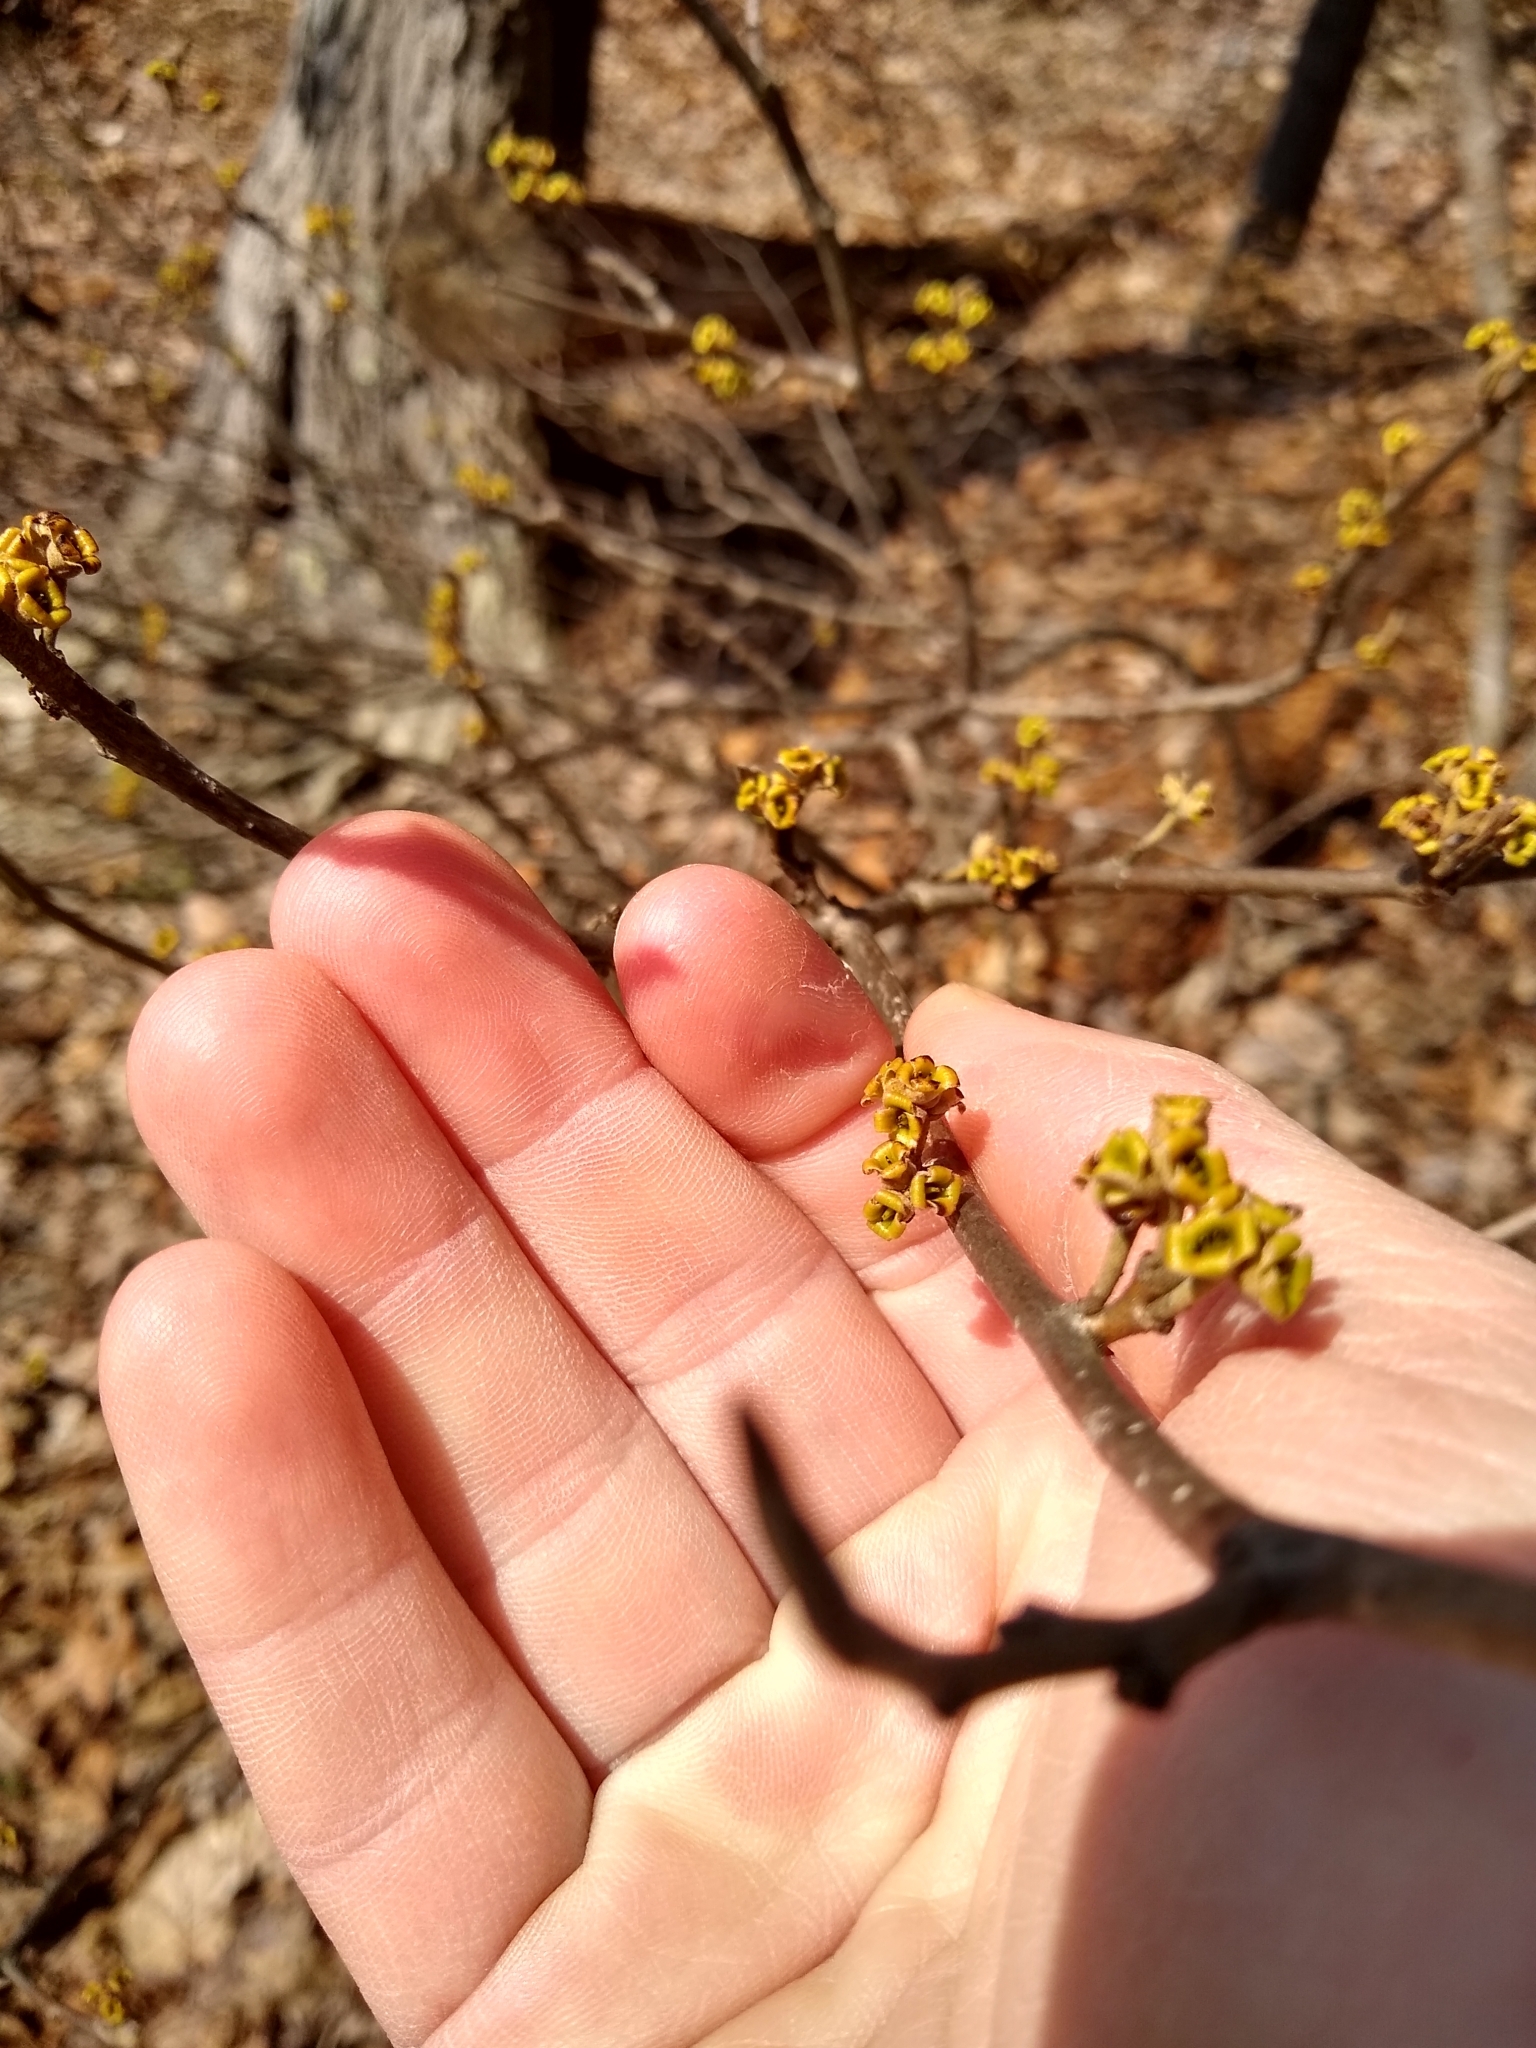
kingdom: Plantae
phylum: Tracheophyta
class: Magnoliopsida
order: Saxifragales
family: Hamamelidaceae
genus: Hamamelis
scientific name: Hamamelis virginiana
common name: Witch-hazel
